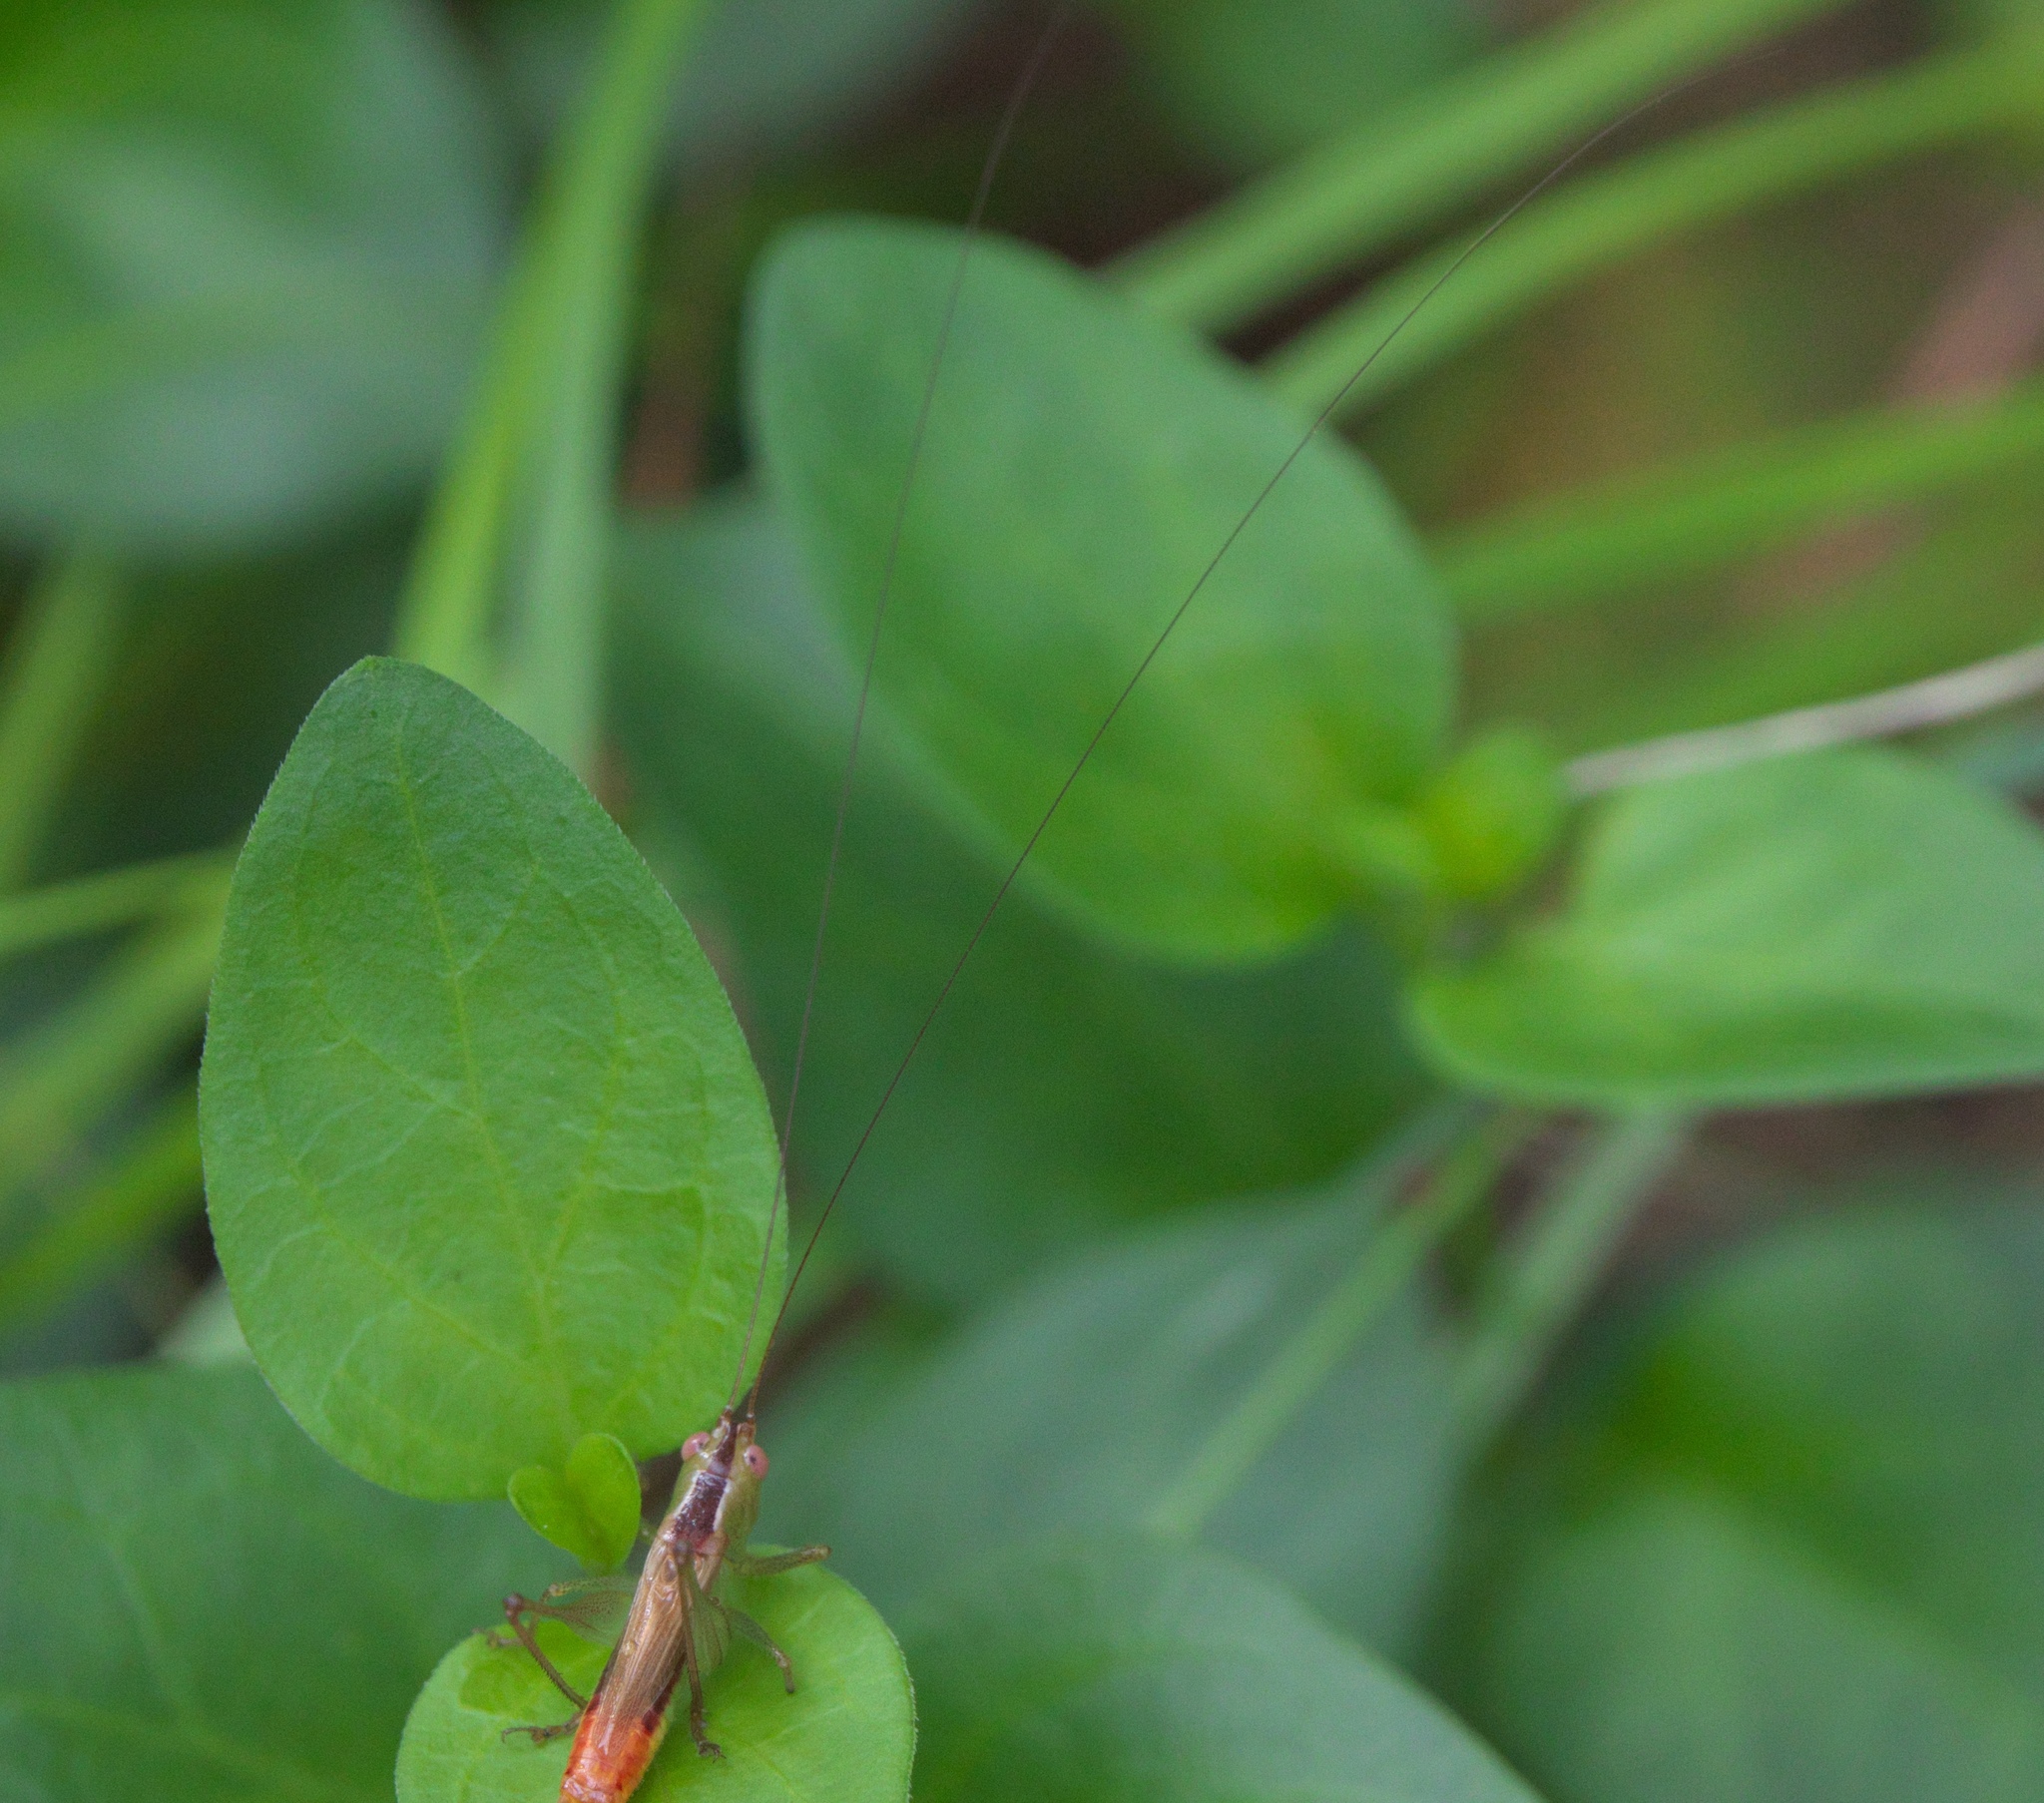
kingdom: Animalia
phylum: Arthropoda
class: Insecta
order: Orthoptera
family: Tettigoniidae
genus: Conocephalus
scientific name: Conocephalus brevipennis
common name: Short-winged meadow katydid
